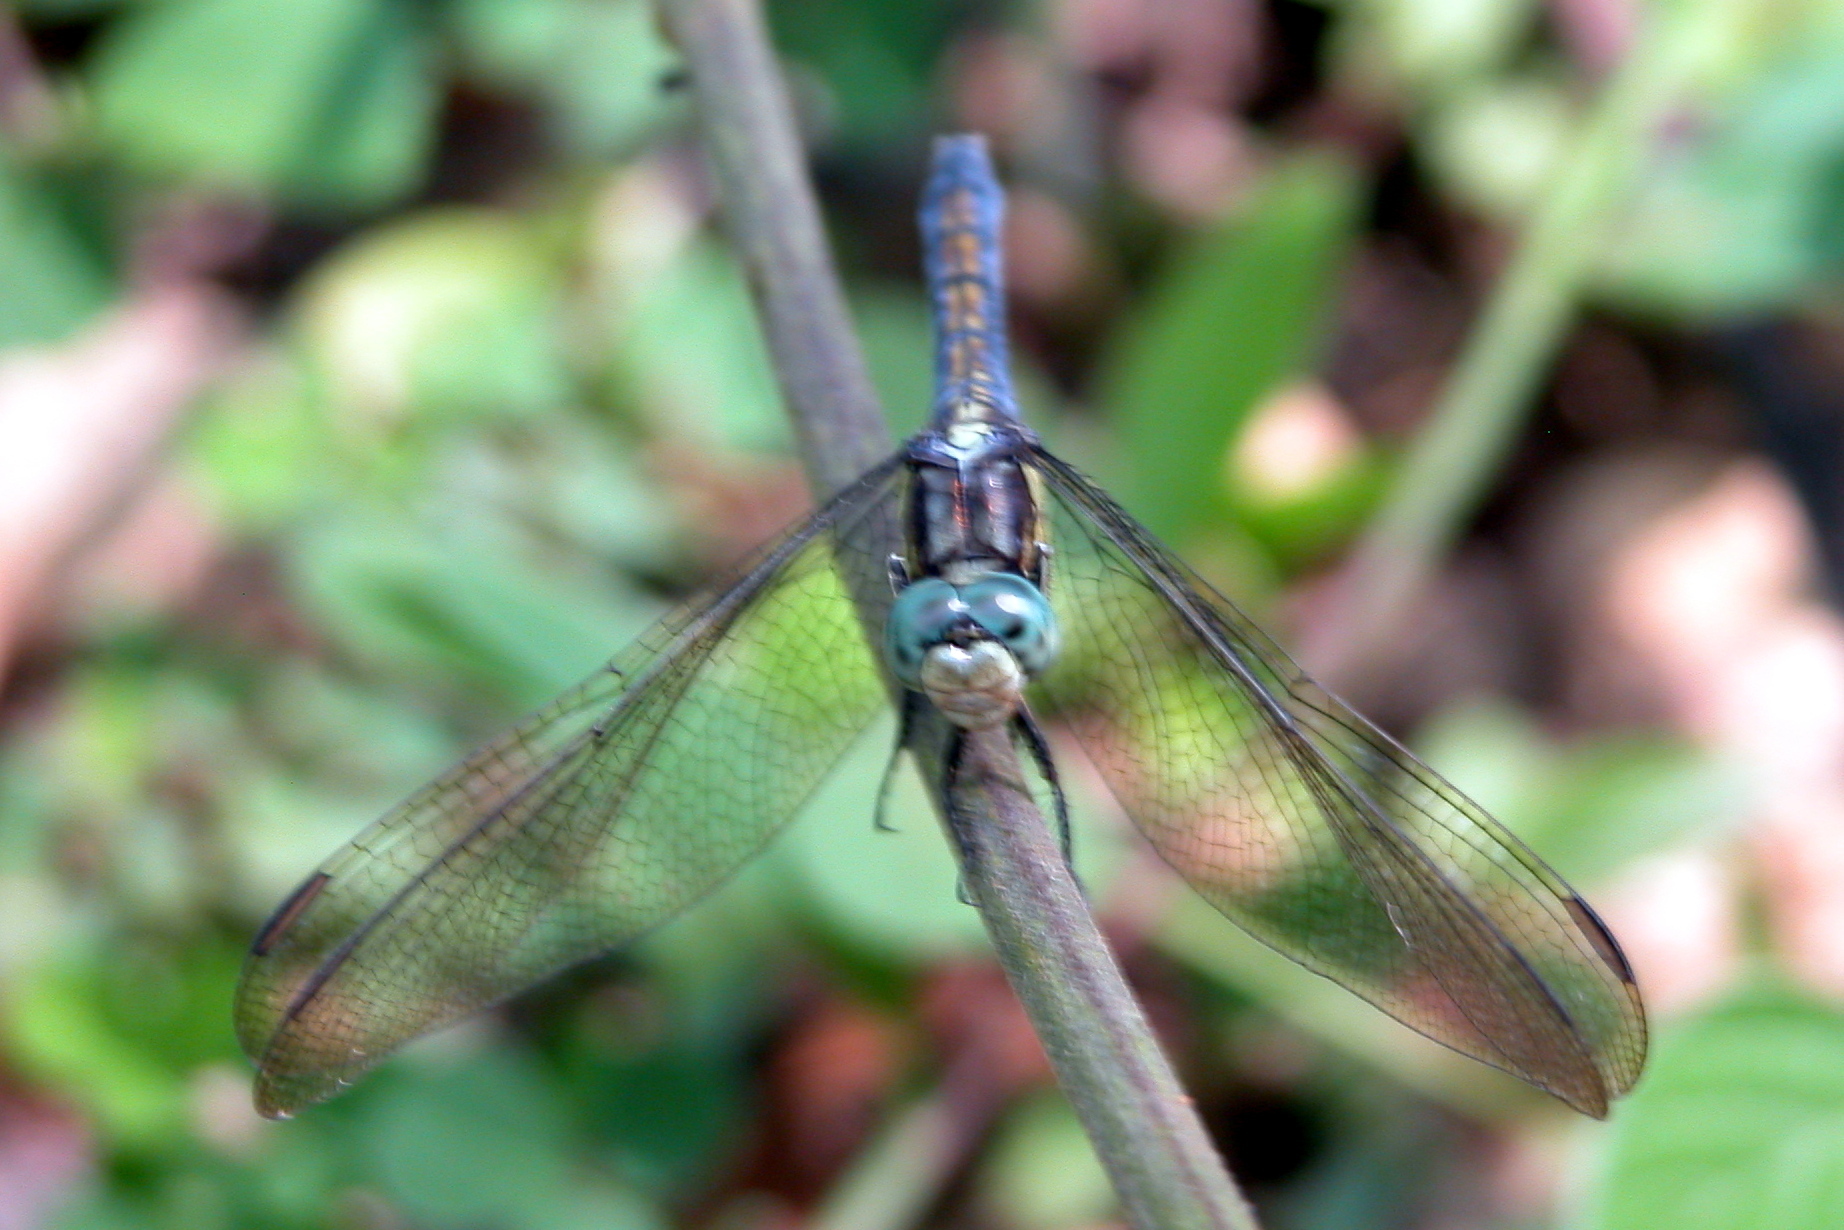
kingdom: Animalia
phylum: Arthropoda
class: Insecta
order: Odonata
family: Libellulidae
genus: Orthetrum
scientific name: Orthetrum luzonicum
